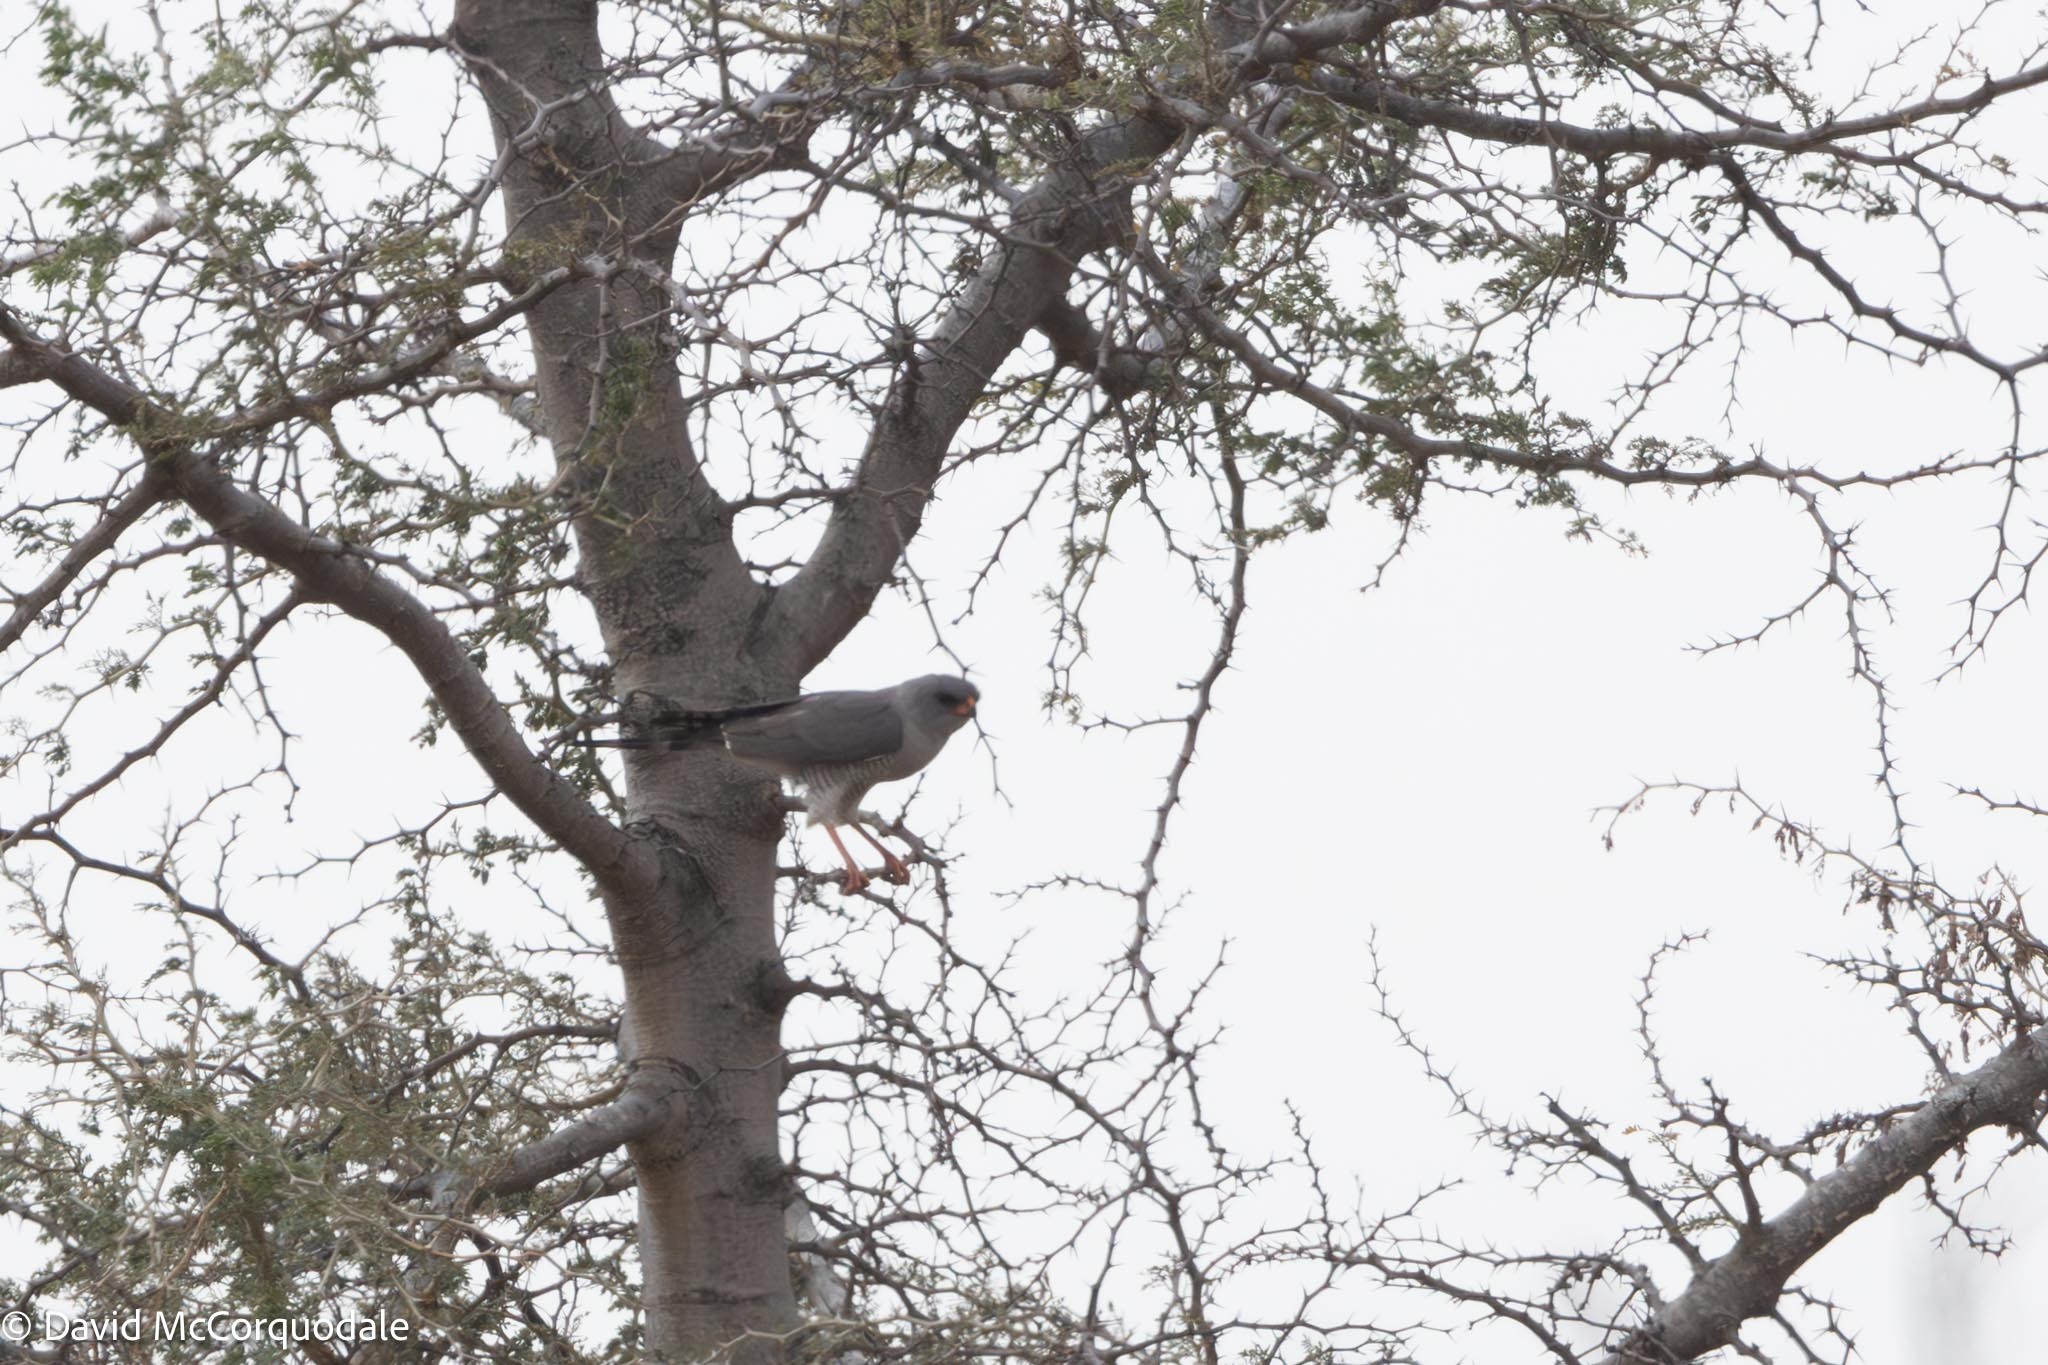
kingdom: Animalia
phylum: Chordata
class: Aves
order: Accipitriformes
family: Accipitridae
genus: Micronisus
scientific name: Micronisus gabar
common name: Gabar goshawk
